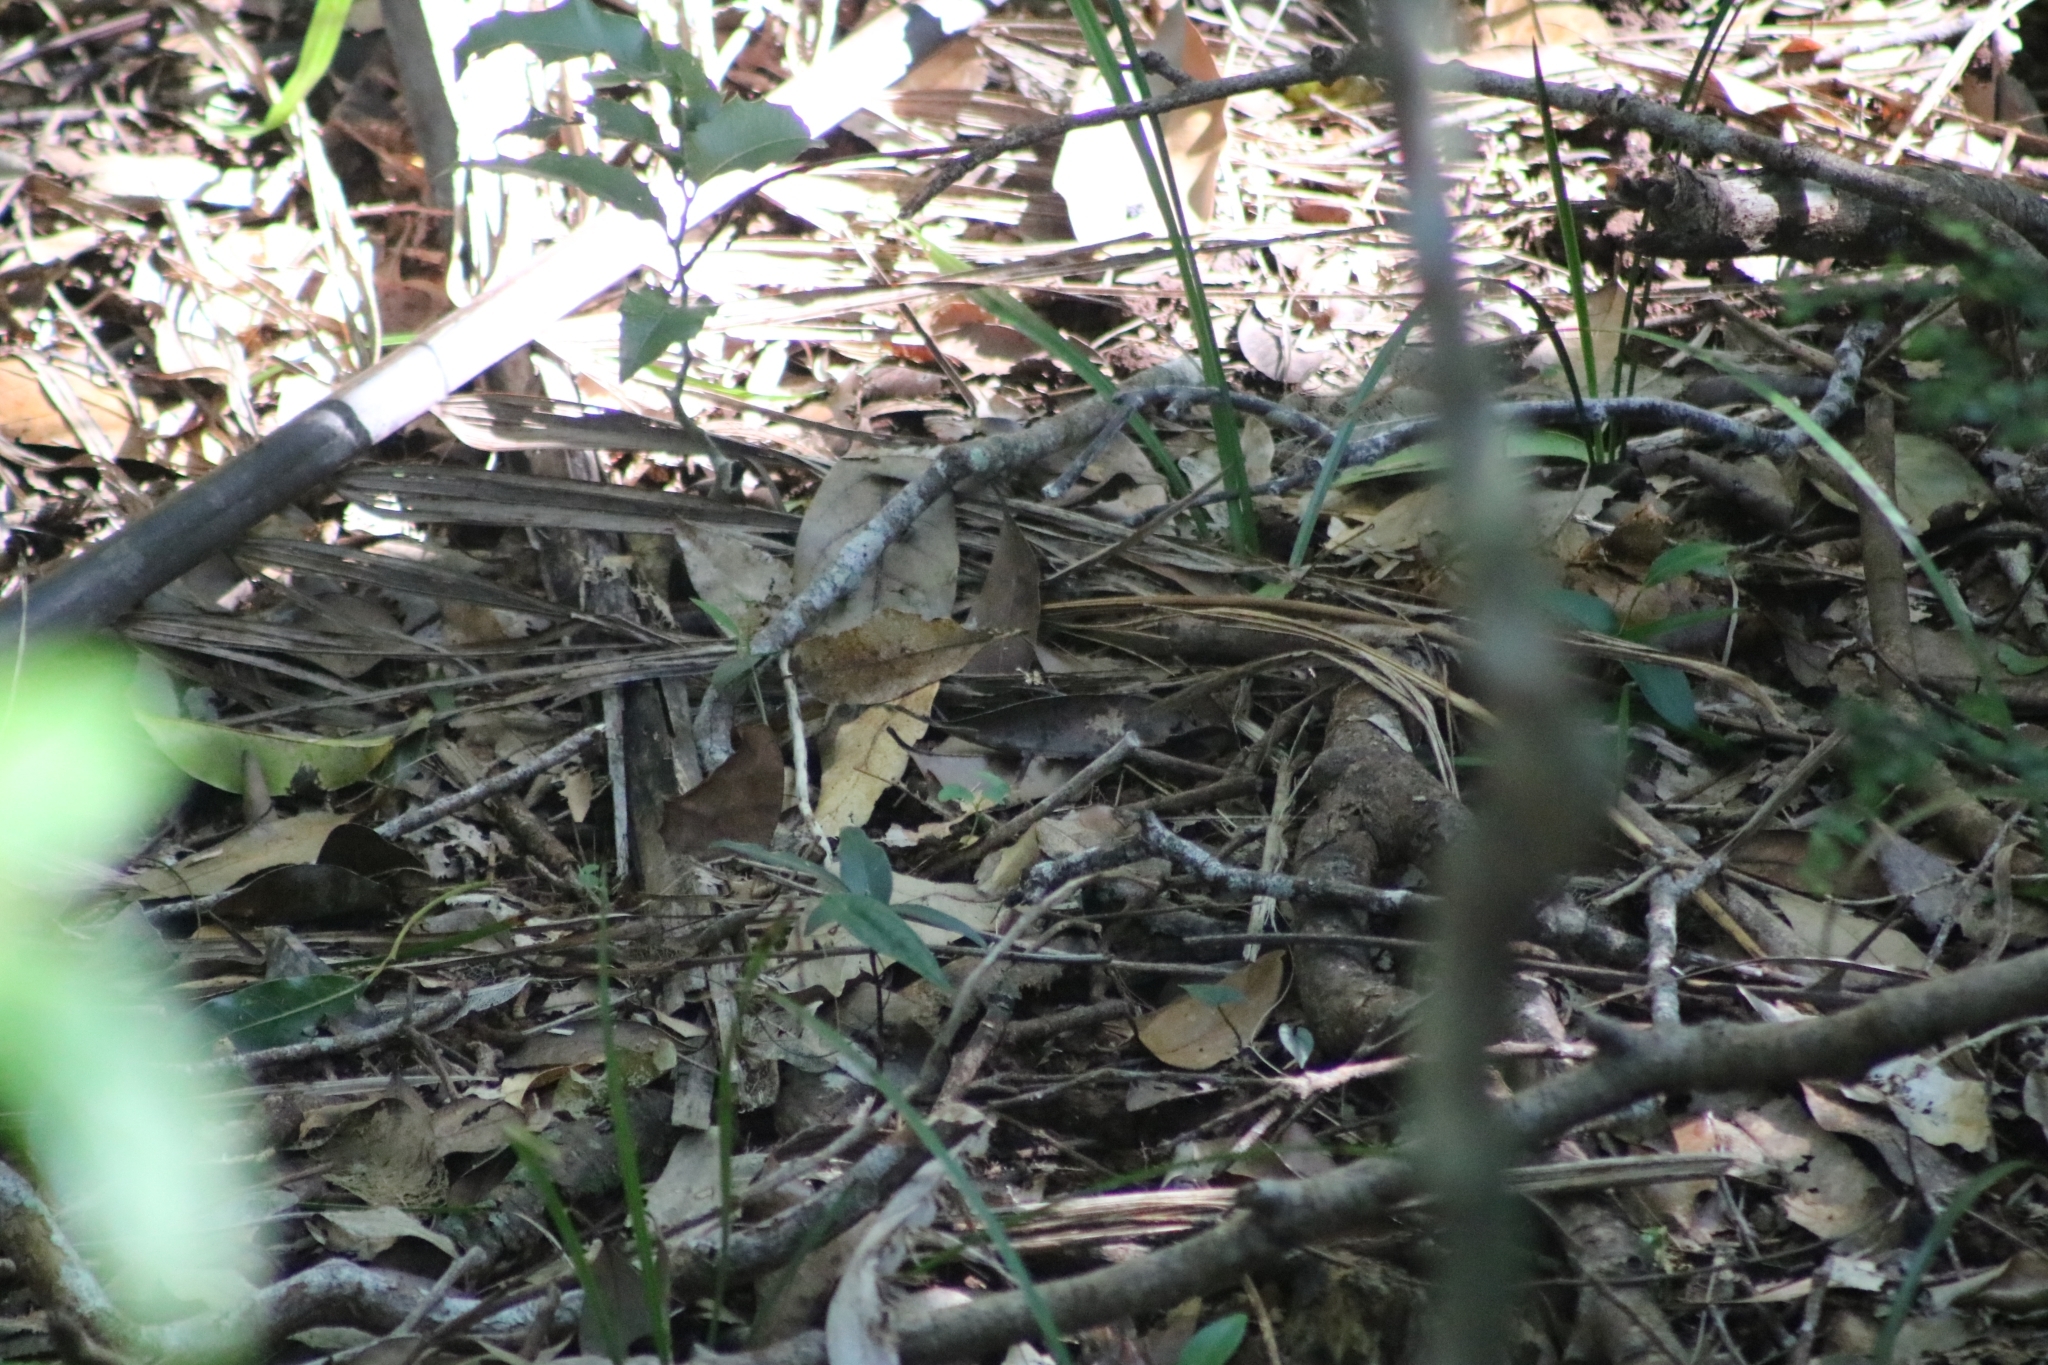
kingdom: Animalia
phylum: Arthropoda
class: Insecta
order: Lepidoptera
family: Nymphalidae
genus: Melanitis
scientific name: Melanitis leda
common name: Twilight brown
